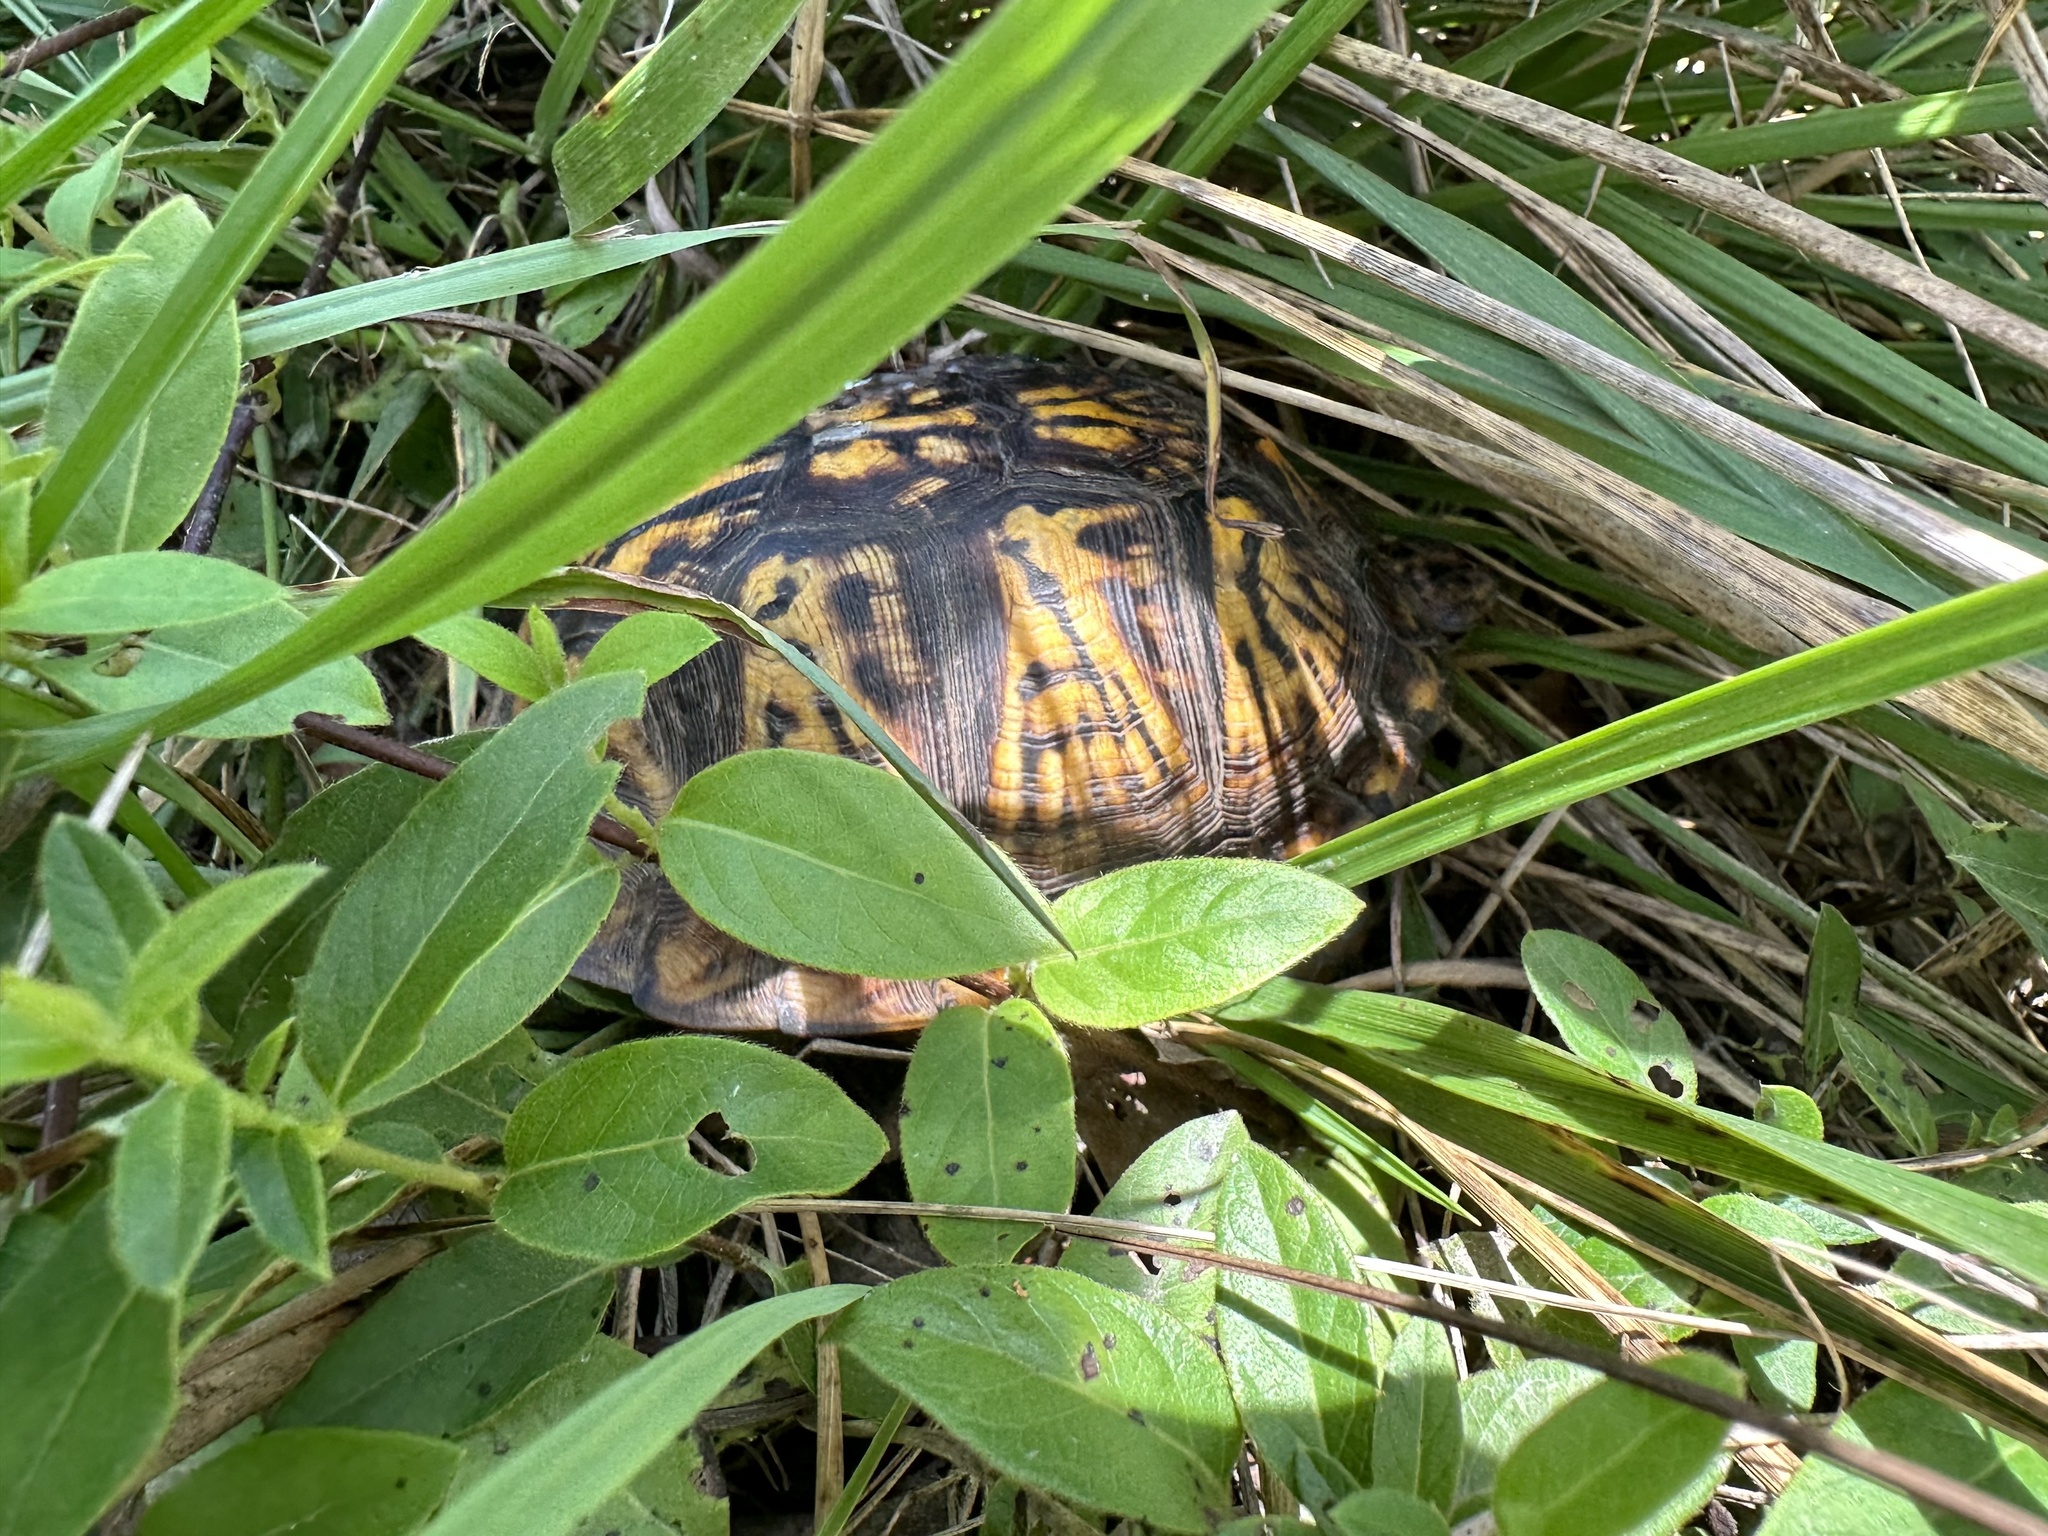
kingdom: Animalia
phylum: Chordata
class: Testudines
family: Emydidae
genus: Terrapene
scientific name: Terrapene carolina
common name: Common box turtle
